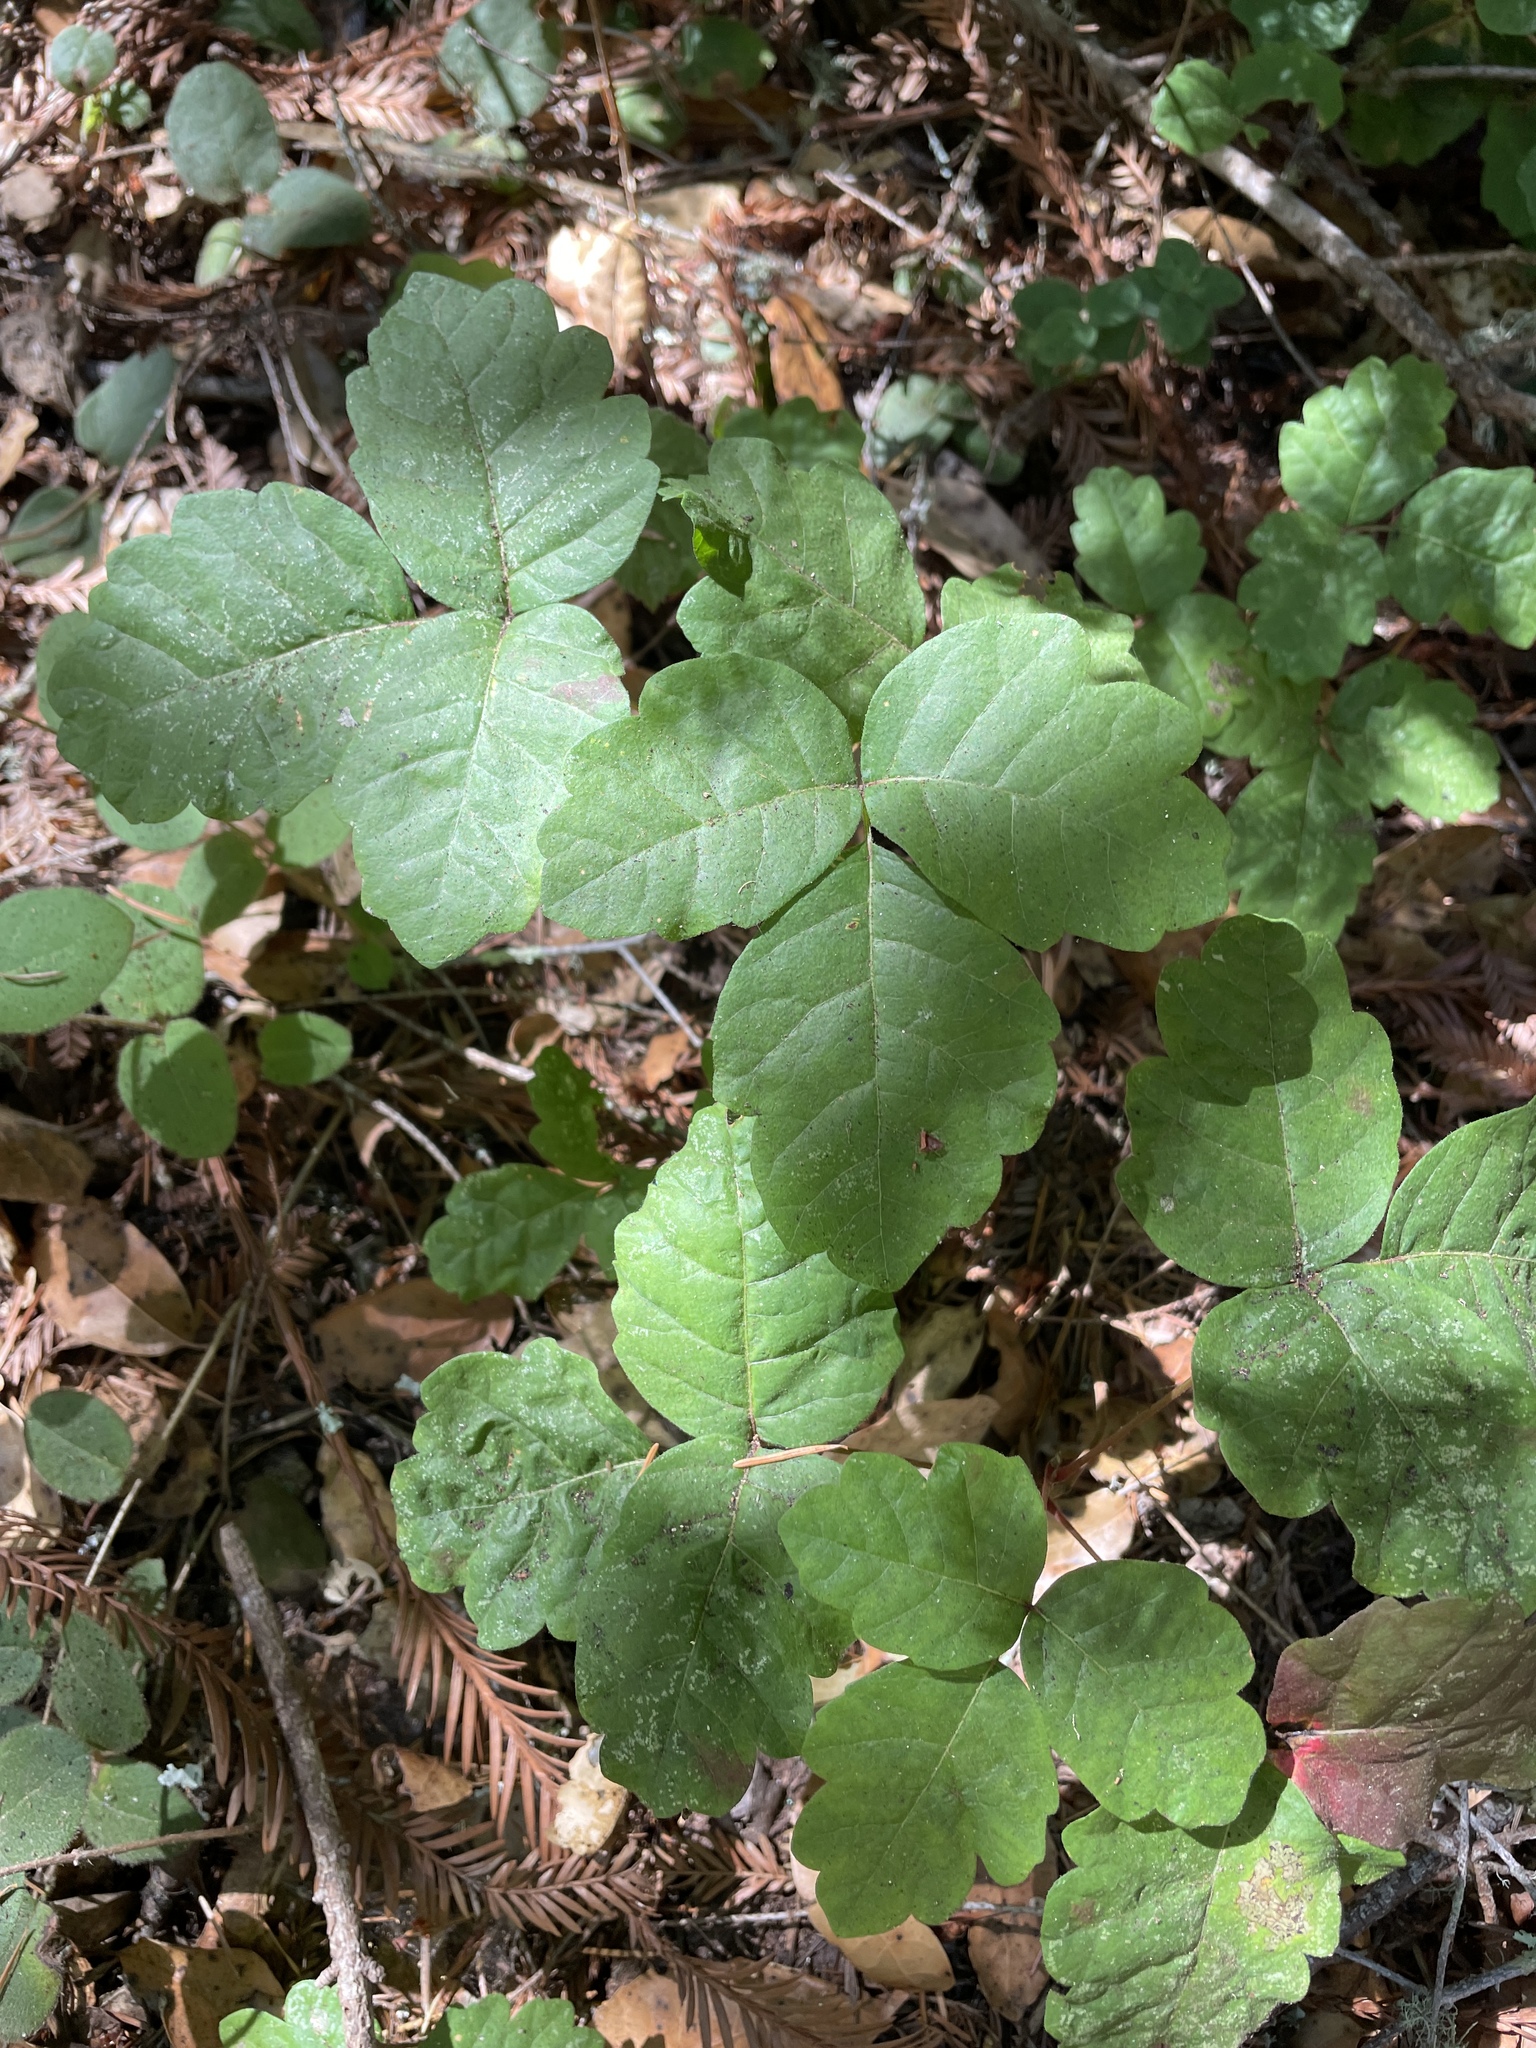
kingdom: Plantae
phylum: Tracheophyta
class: Magnoliopsida
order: Sapindales
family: Anacardiaceae
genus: Toxicodendron
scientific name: Toxicodendron diversilobum
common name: Pacific poison-oak
